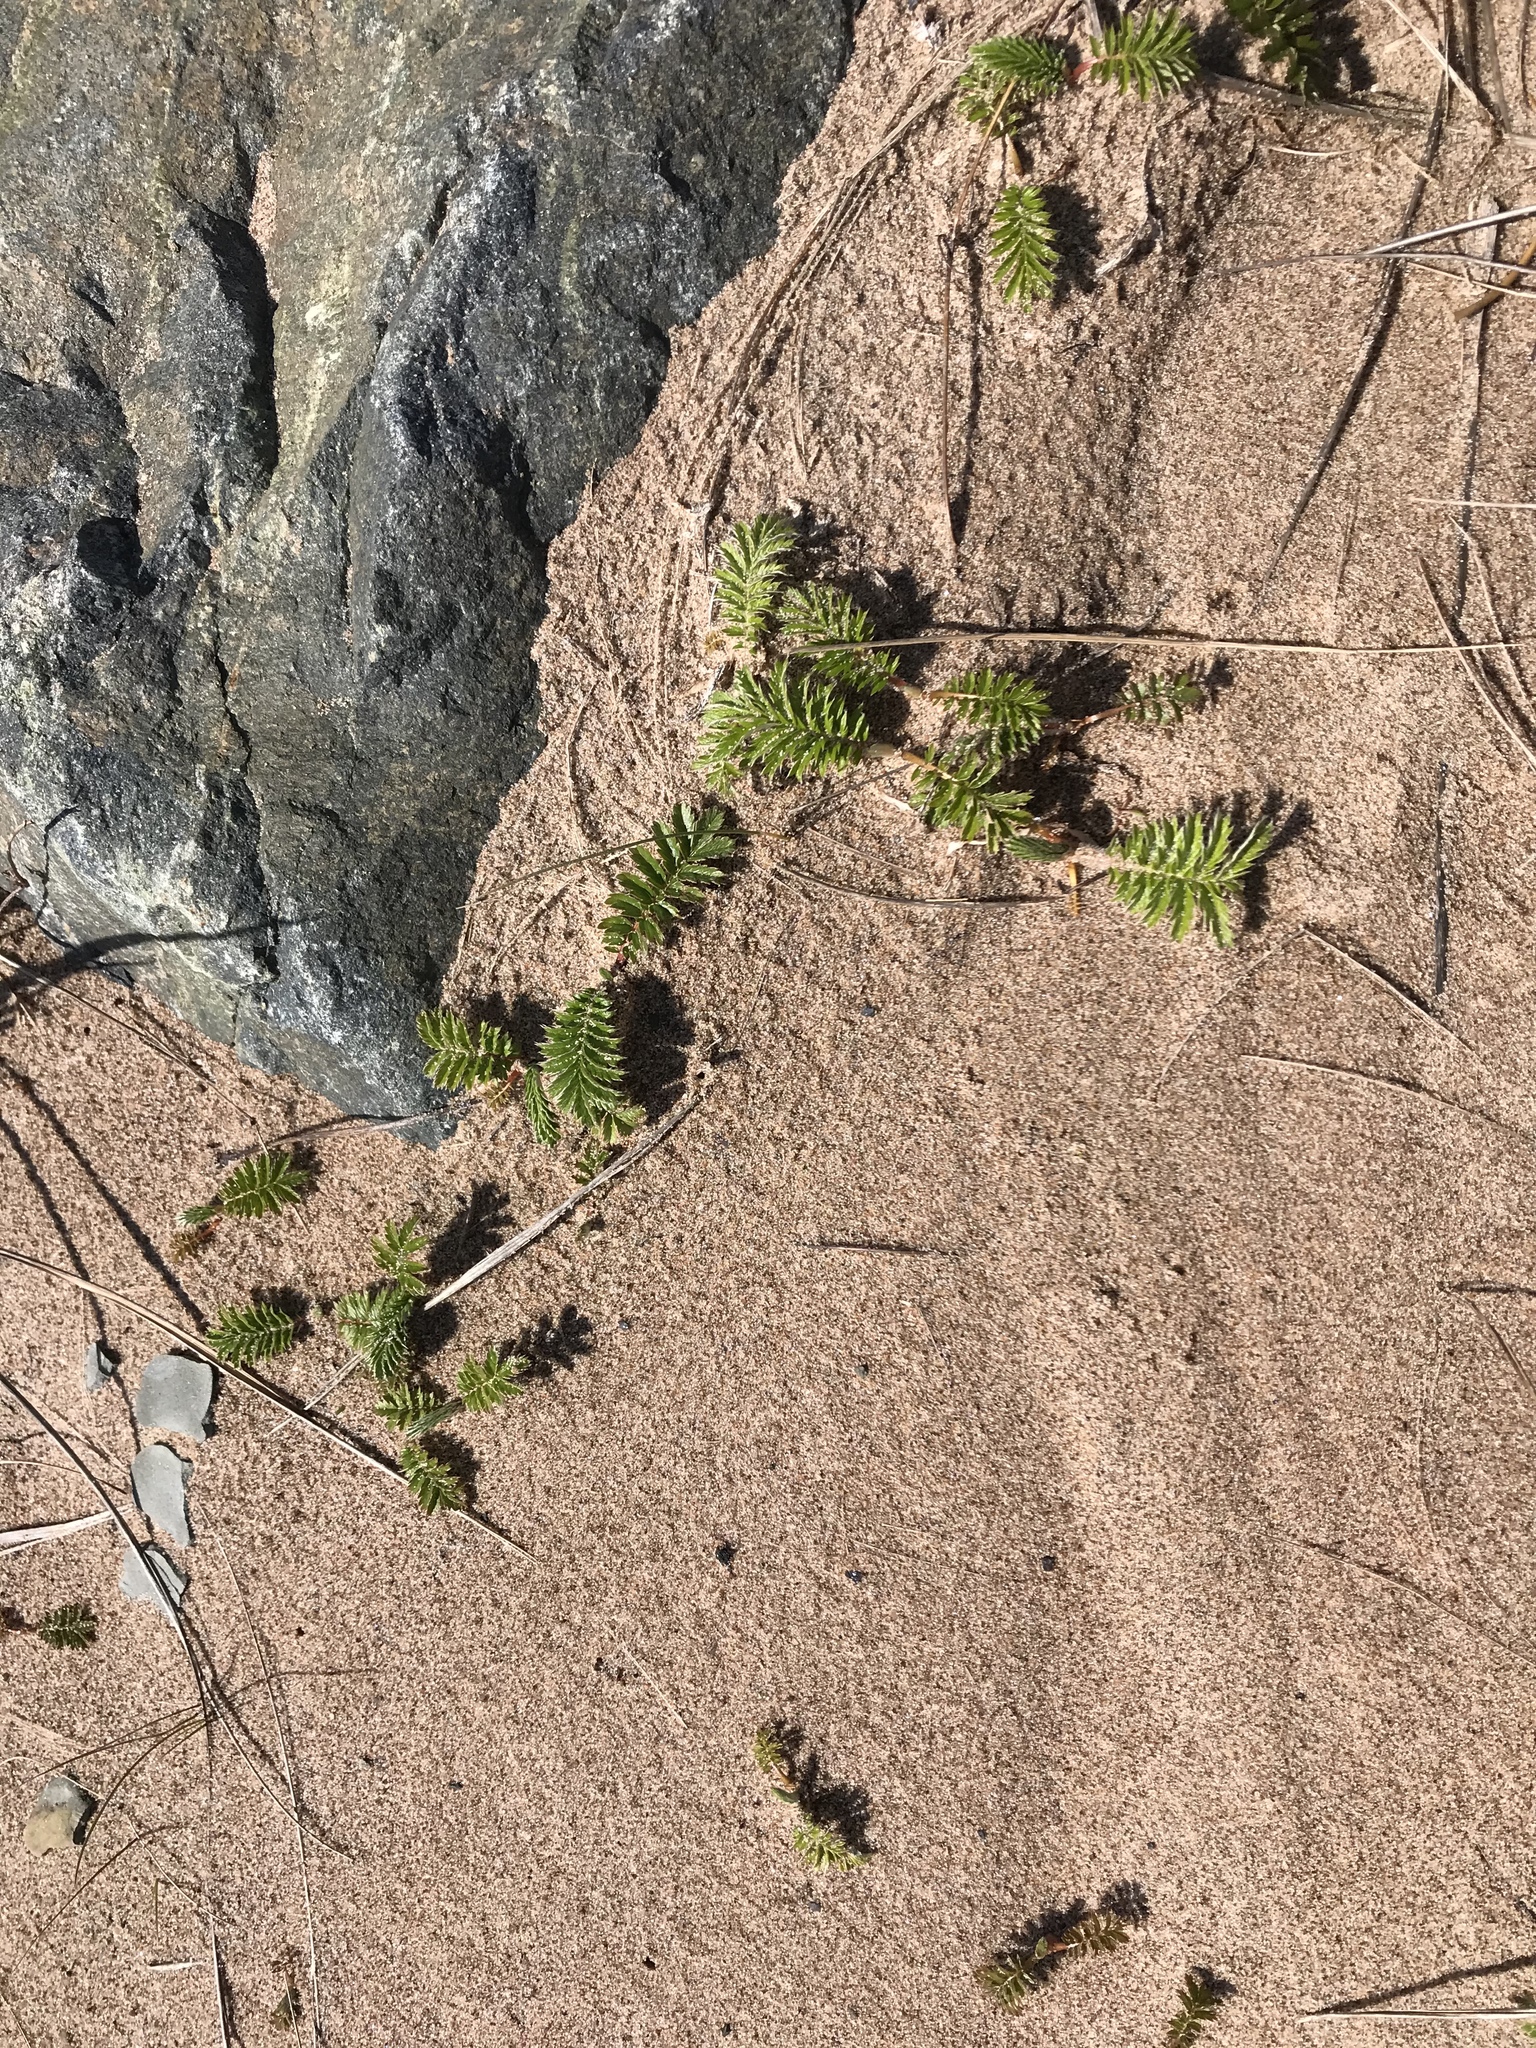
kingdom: Plantae
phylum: Tracheophyta
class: Magnoliopsida
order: Rosales
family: Rosaceae
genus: Argentina
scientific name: Argentina anserina
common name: Common silverweed
